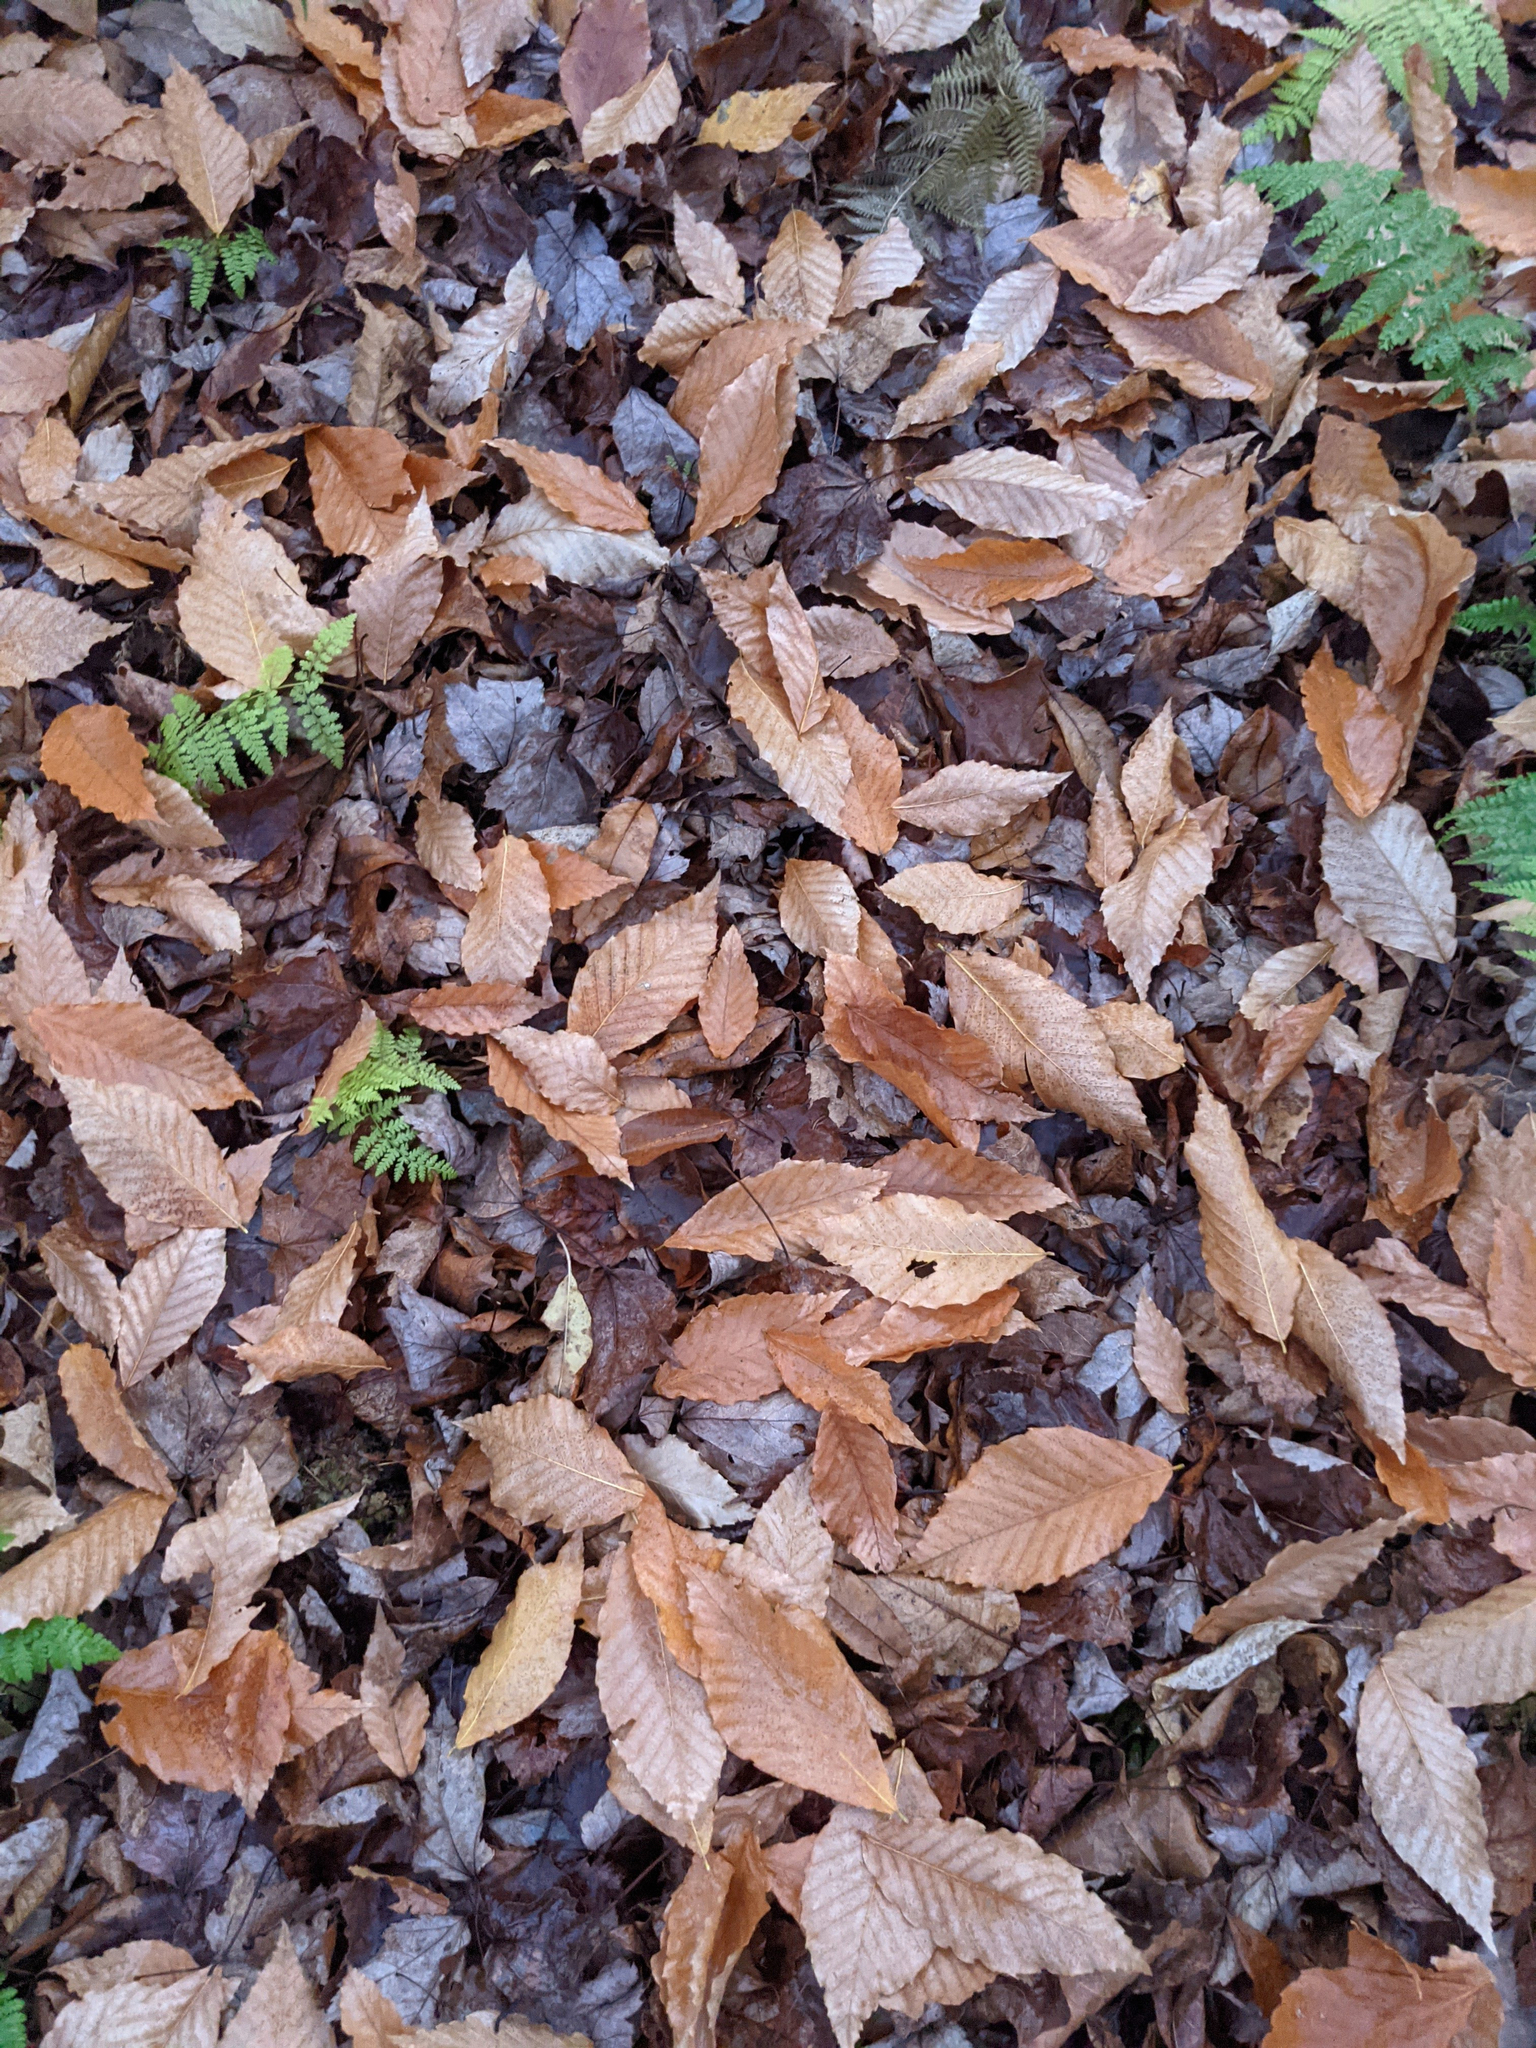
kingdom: Plantae
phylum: Tracheophyta
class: Magnoliopsida
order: Fagales
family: Fagaceae
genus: Fagus
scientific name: Fagus grandifolia
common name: American beech
